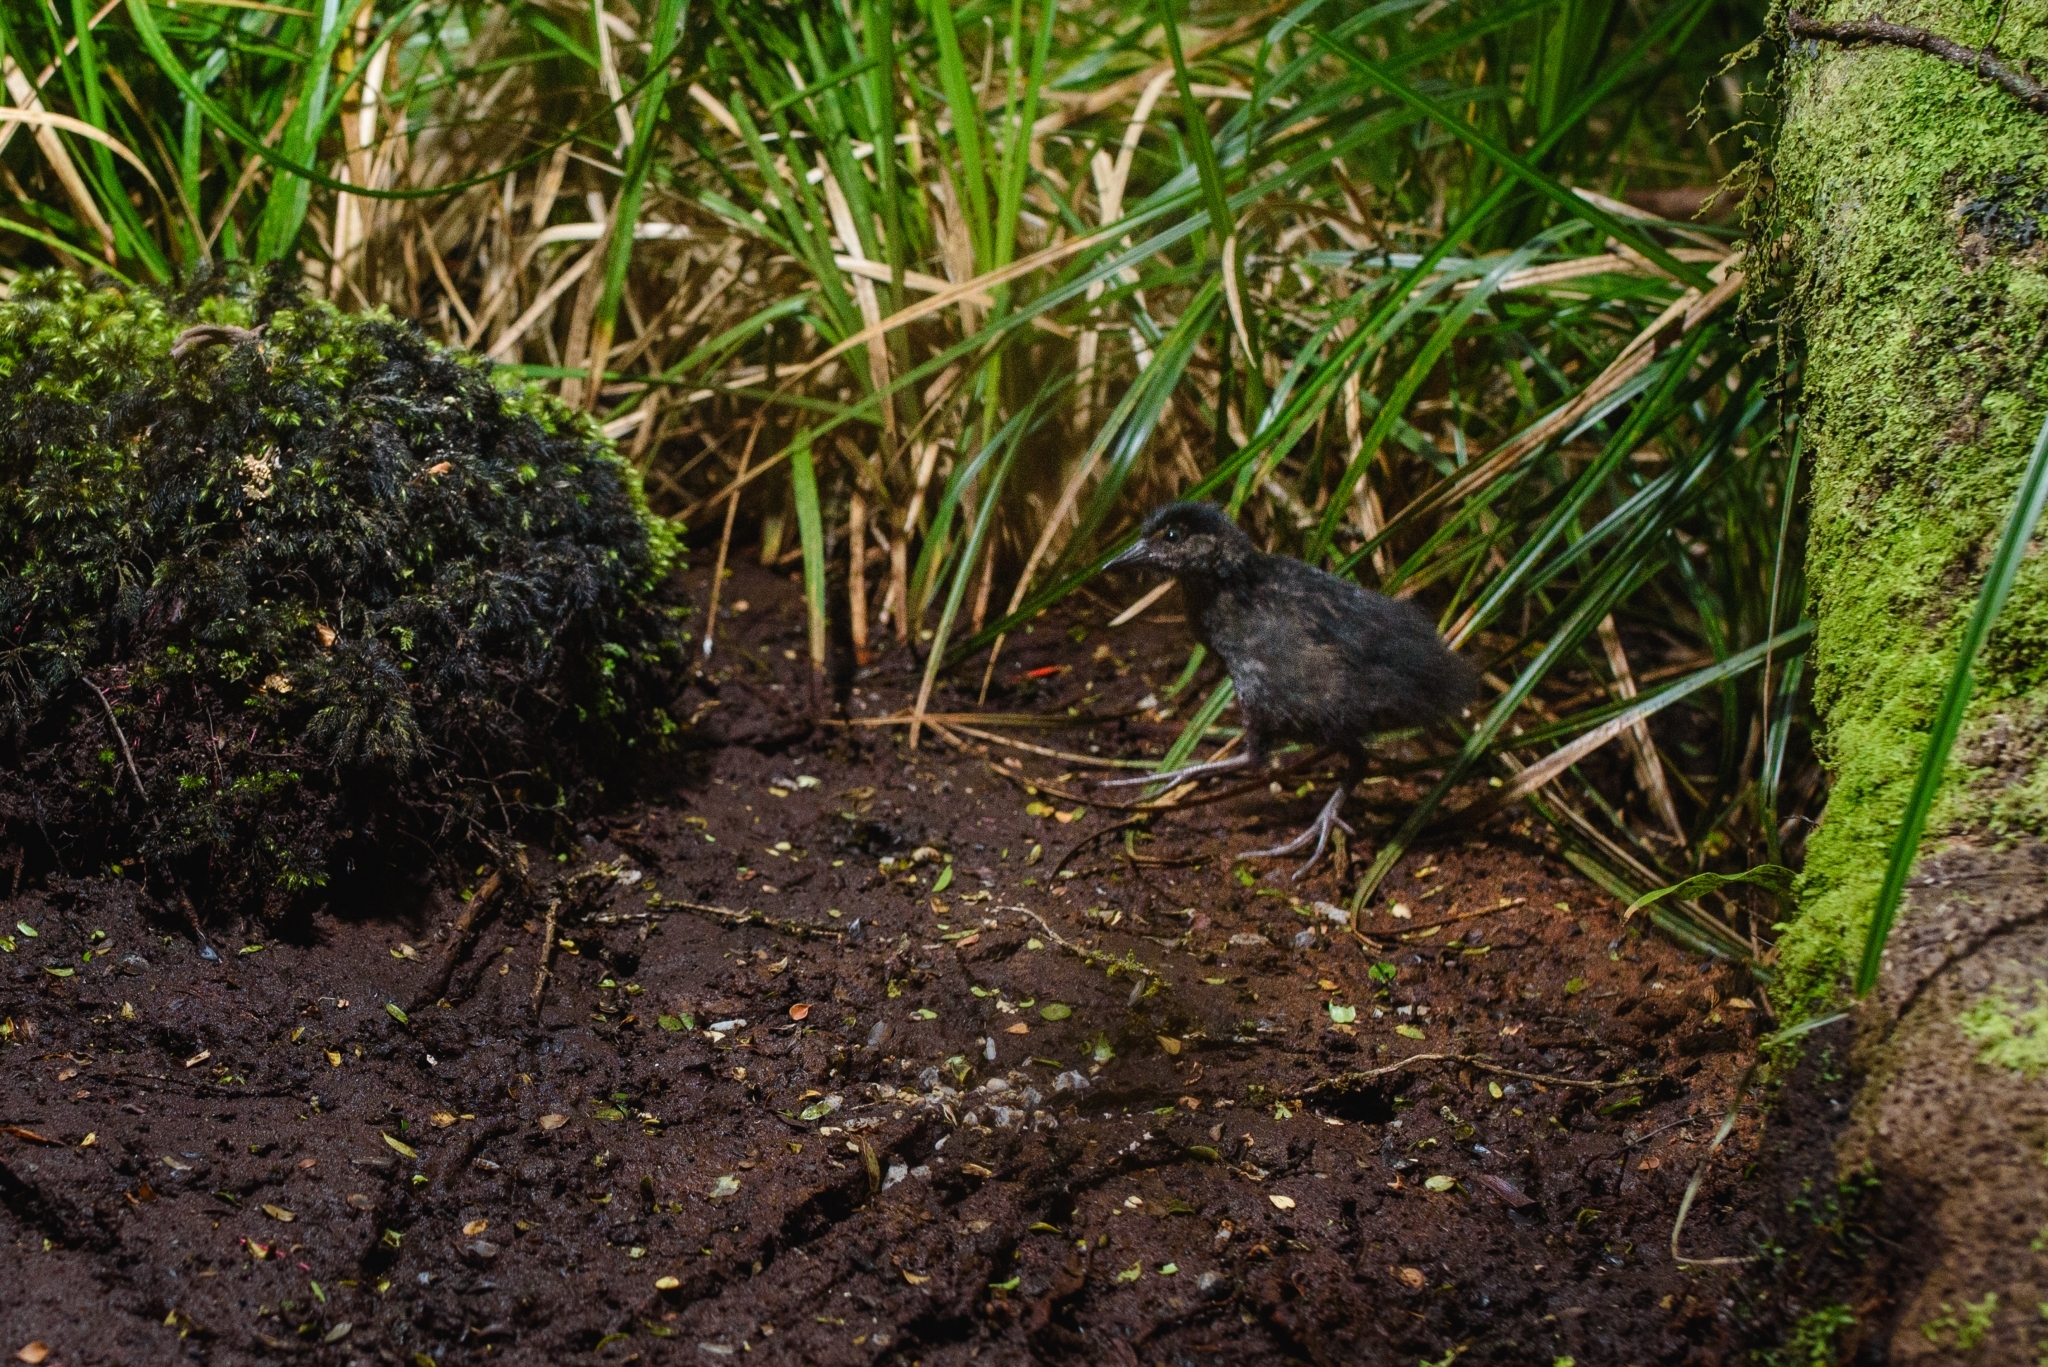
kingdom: Animalia
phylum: Chordata
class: Aves
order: Gruiformes
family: Rallidae
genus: Lewinia
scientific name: Lewinia muelleri
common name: Auckland rail
